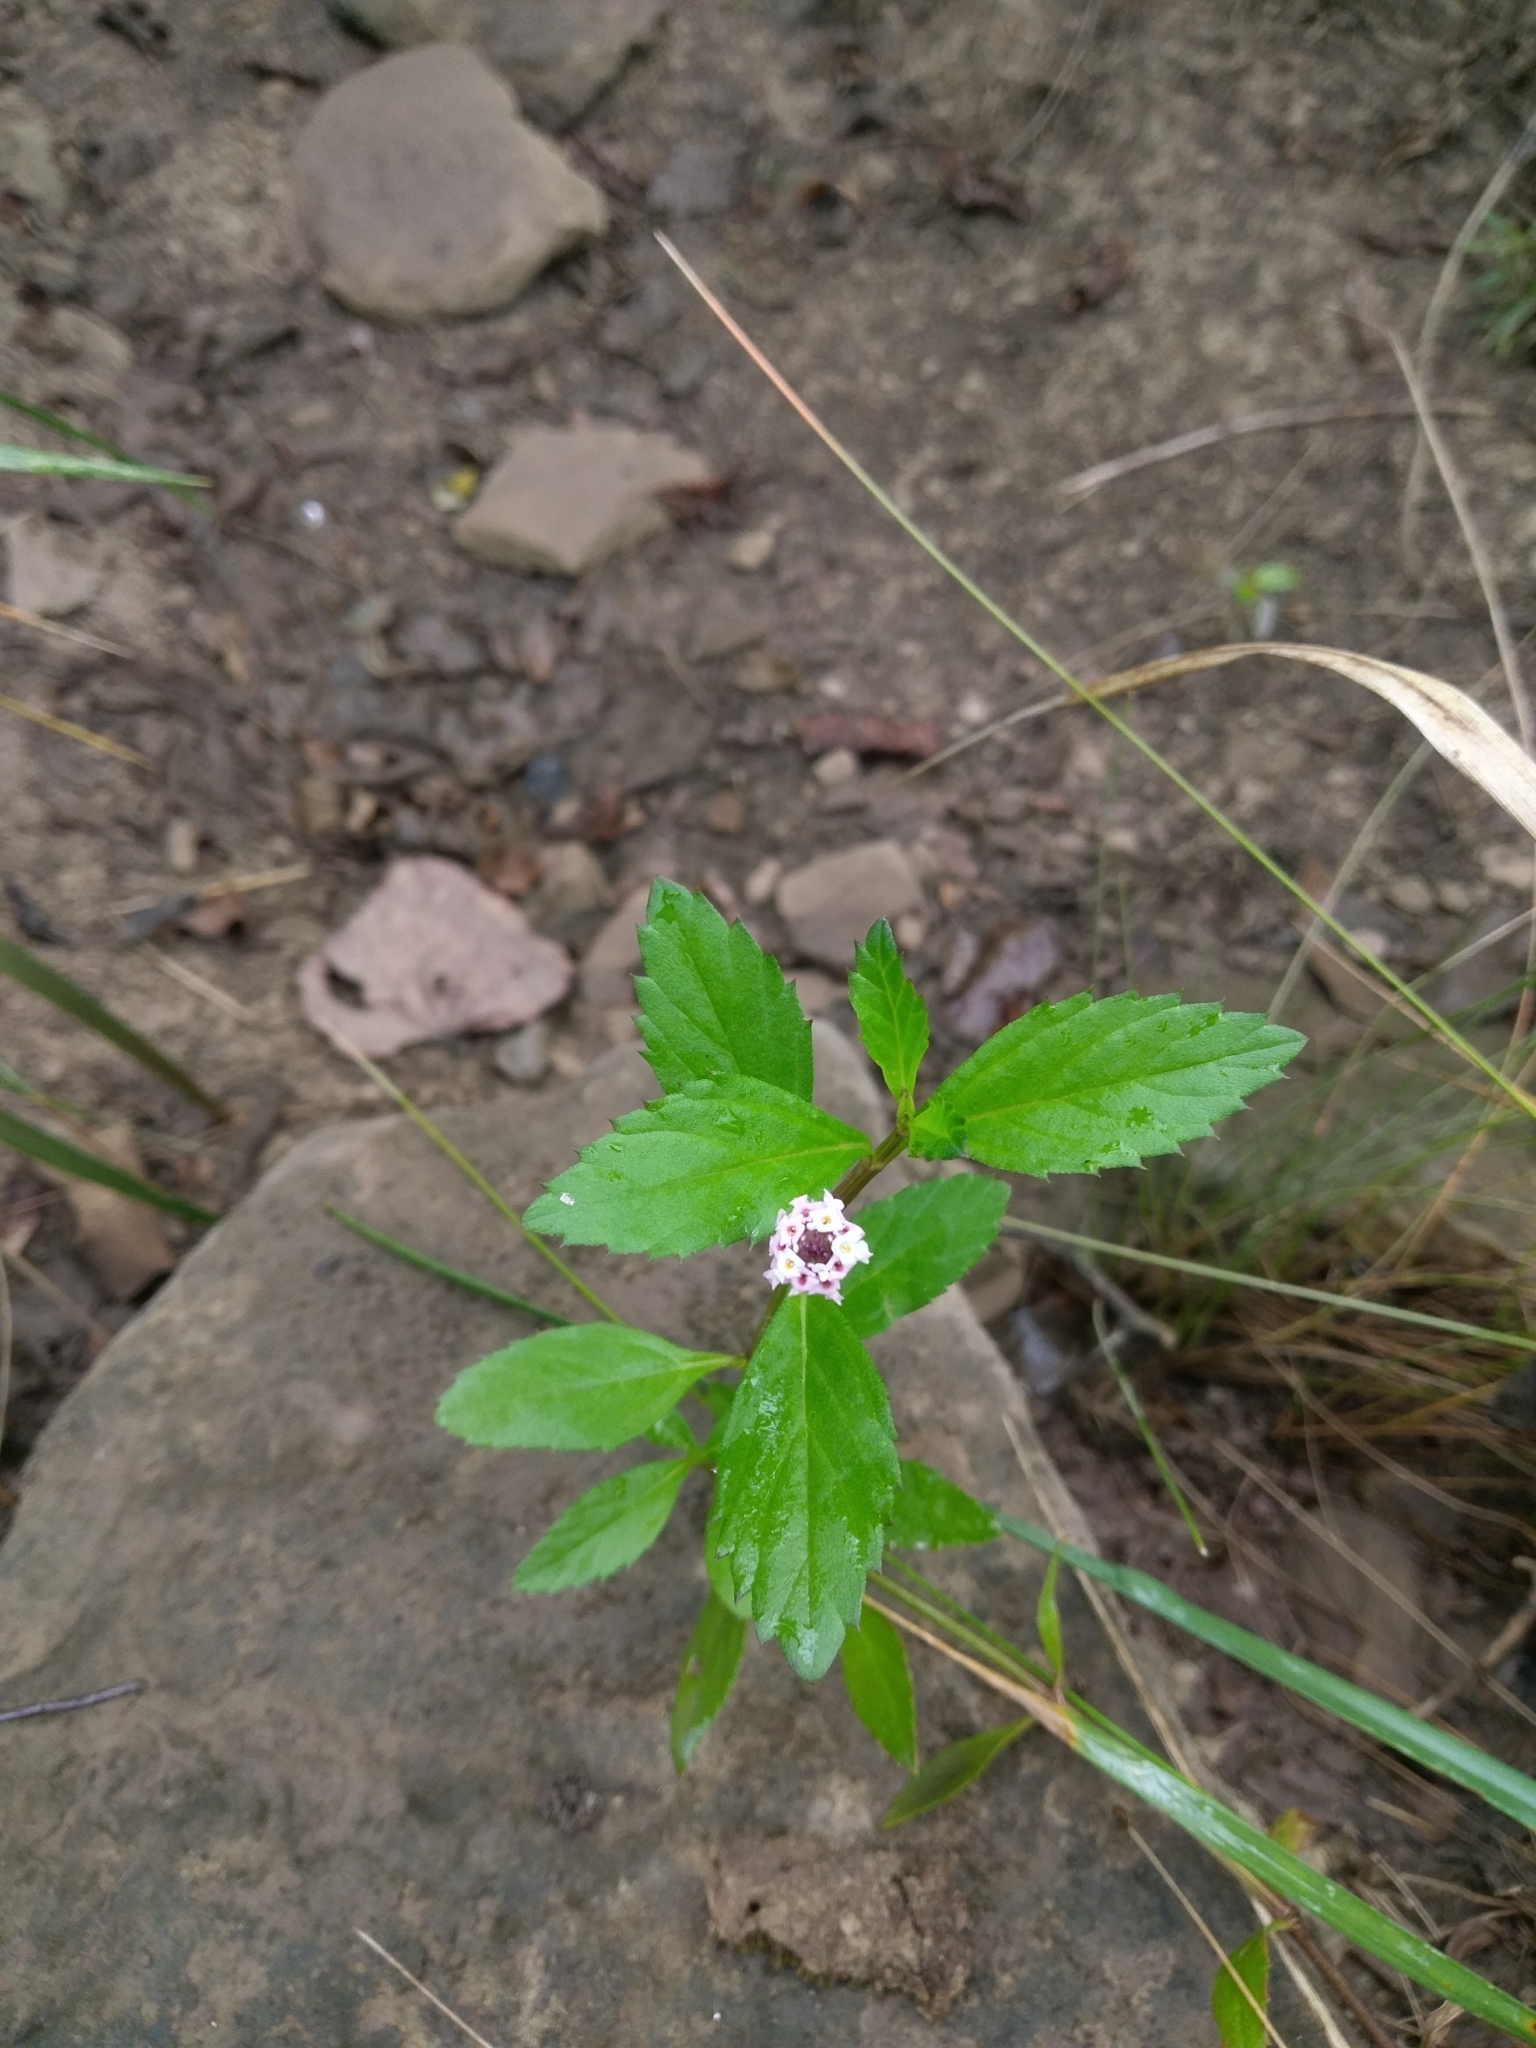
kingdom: Plantae
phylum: Tracheophyta
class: Magnoliopsida
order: Lamiales
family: Verbenaceae
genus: Phyla
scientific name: Phyla lanceolata
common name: Northern fogfruit
